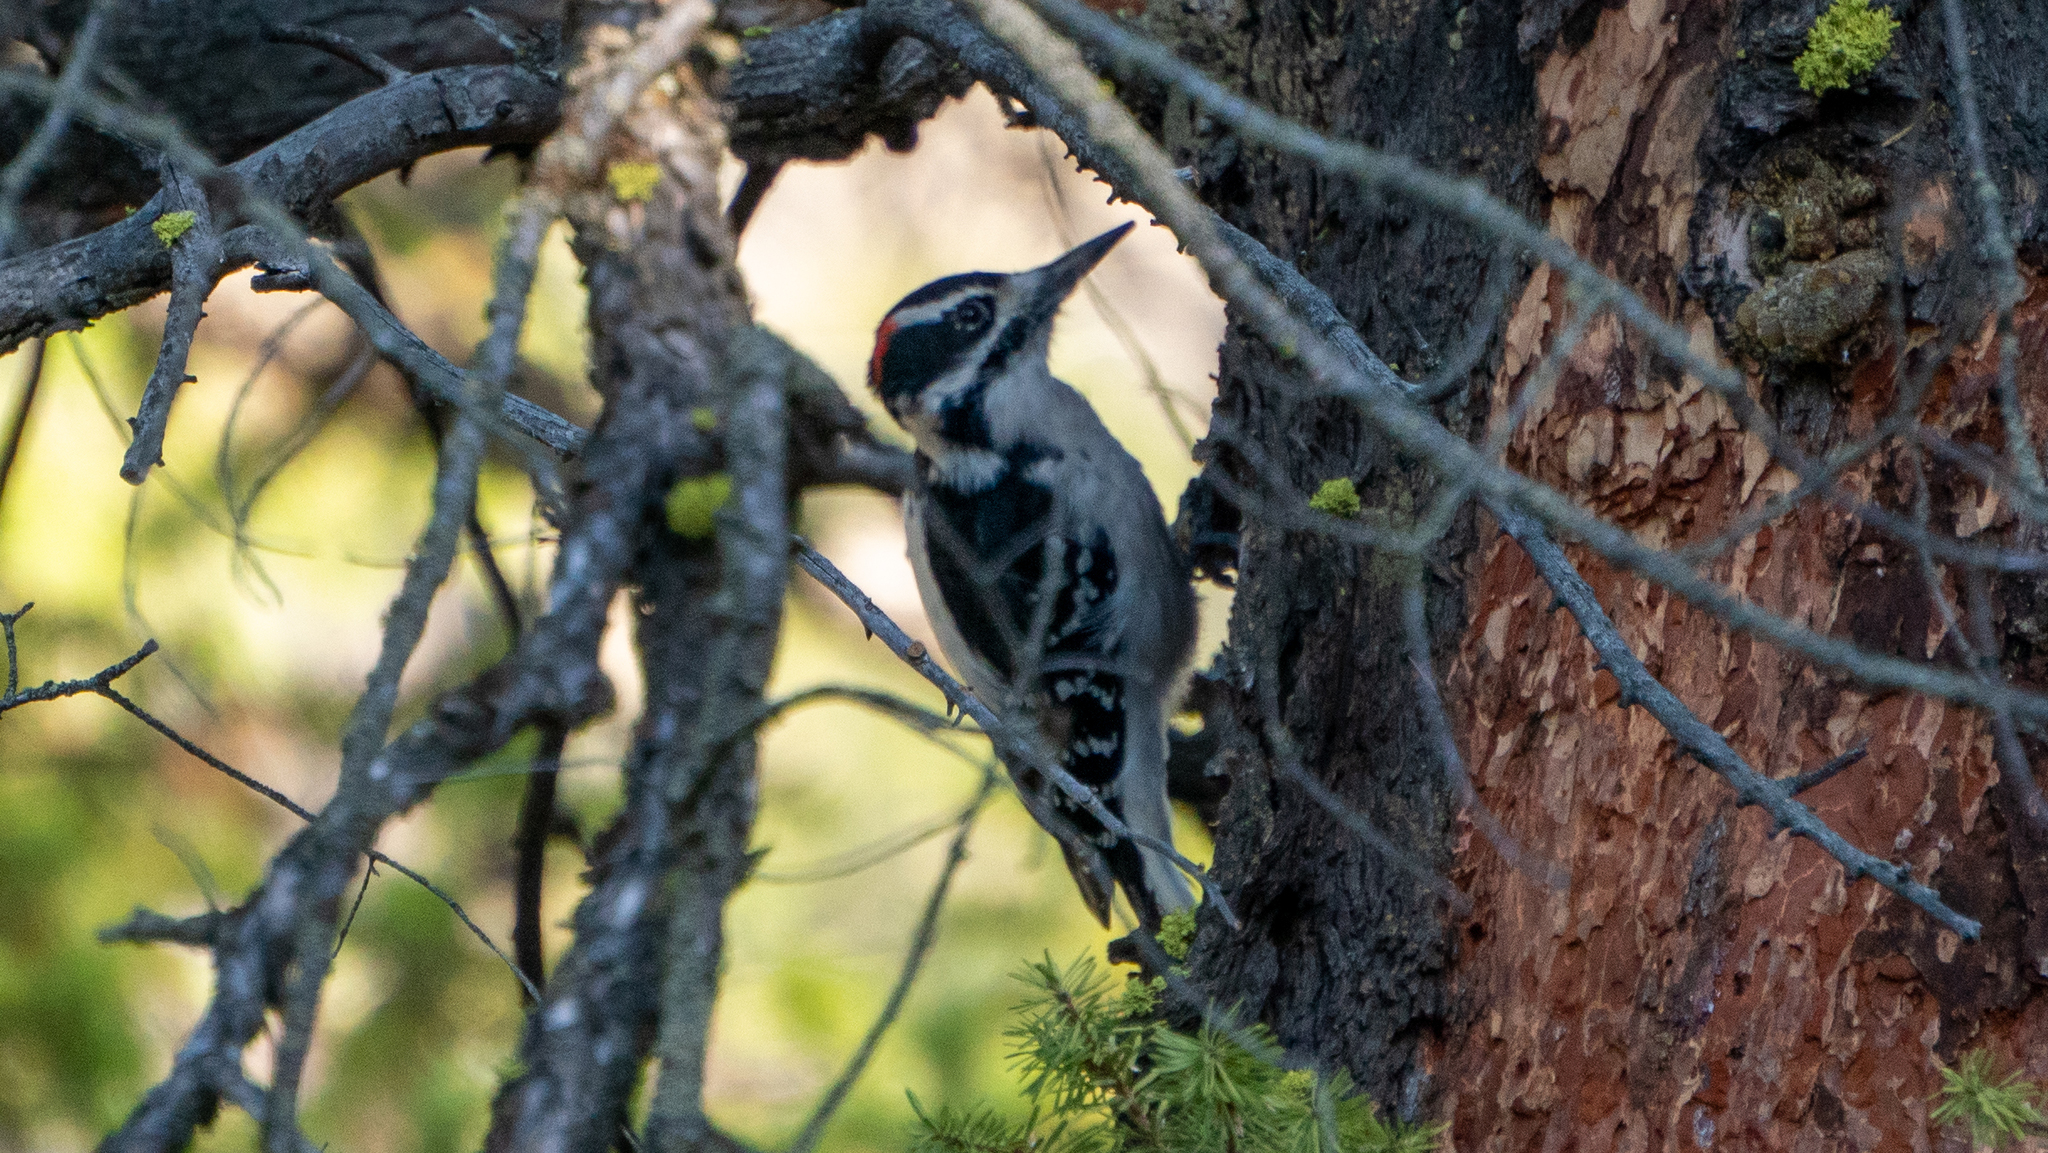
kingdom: Animalia
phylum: Chordata
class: Aves
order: Piciformes
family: Picidae
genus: Leuconotopicus
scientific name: Leuconotopicus villosus
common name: Hairy woodpecker
